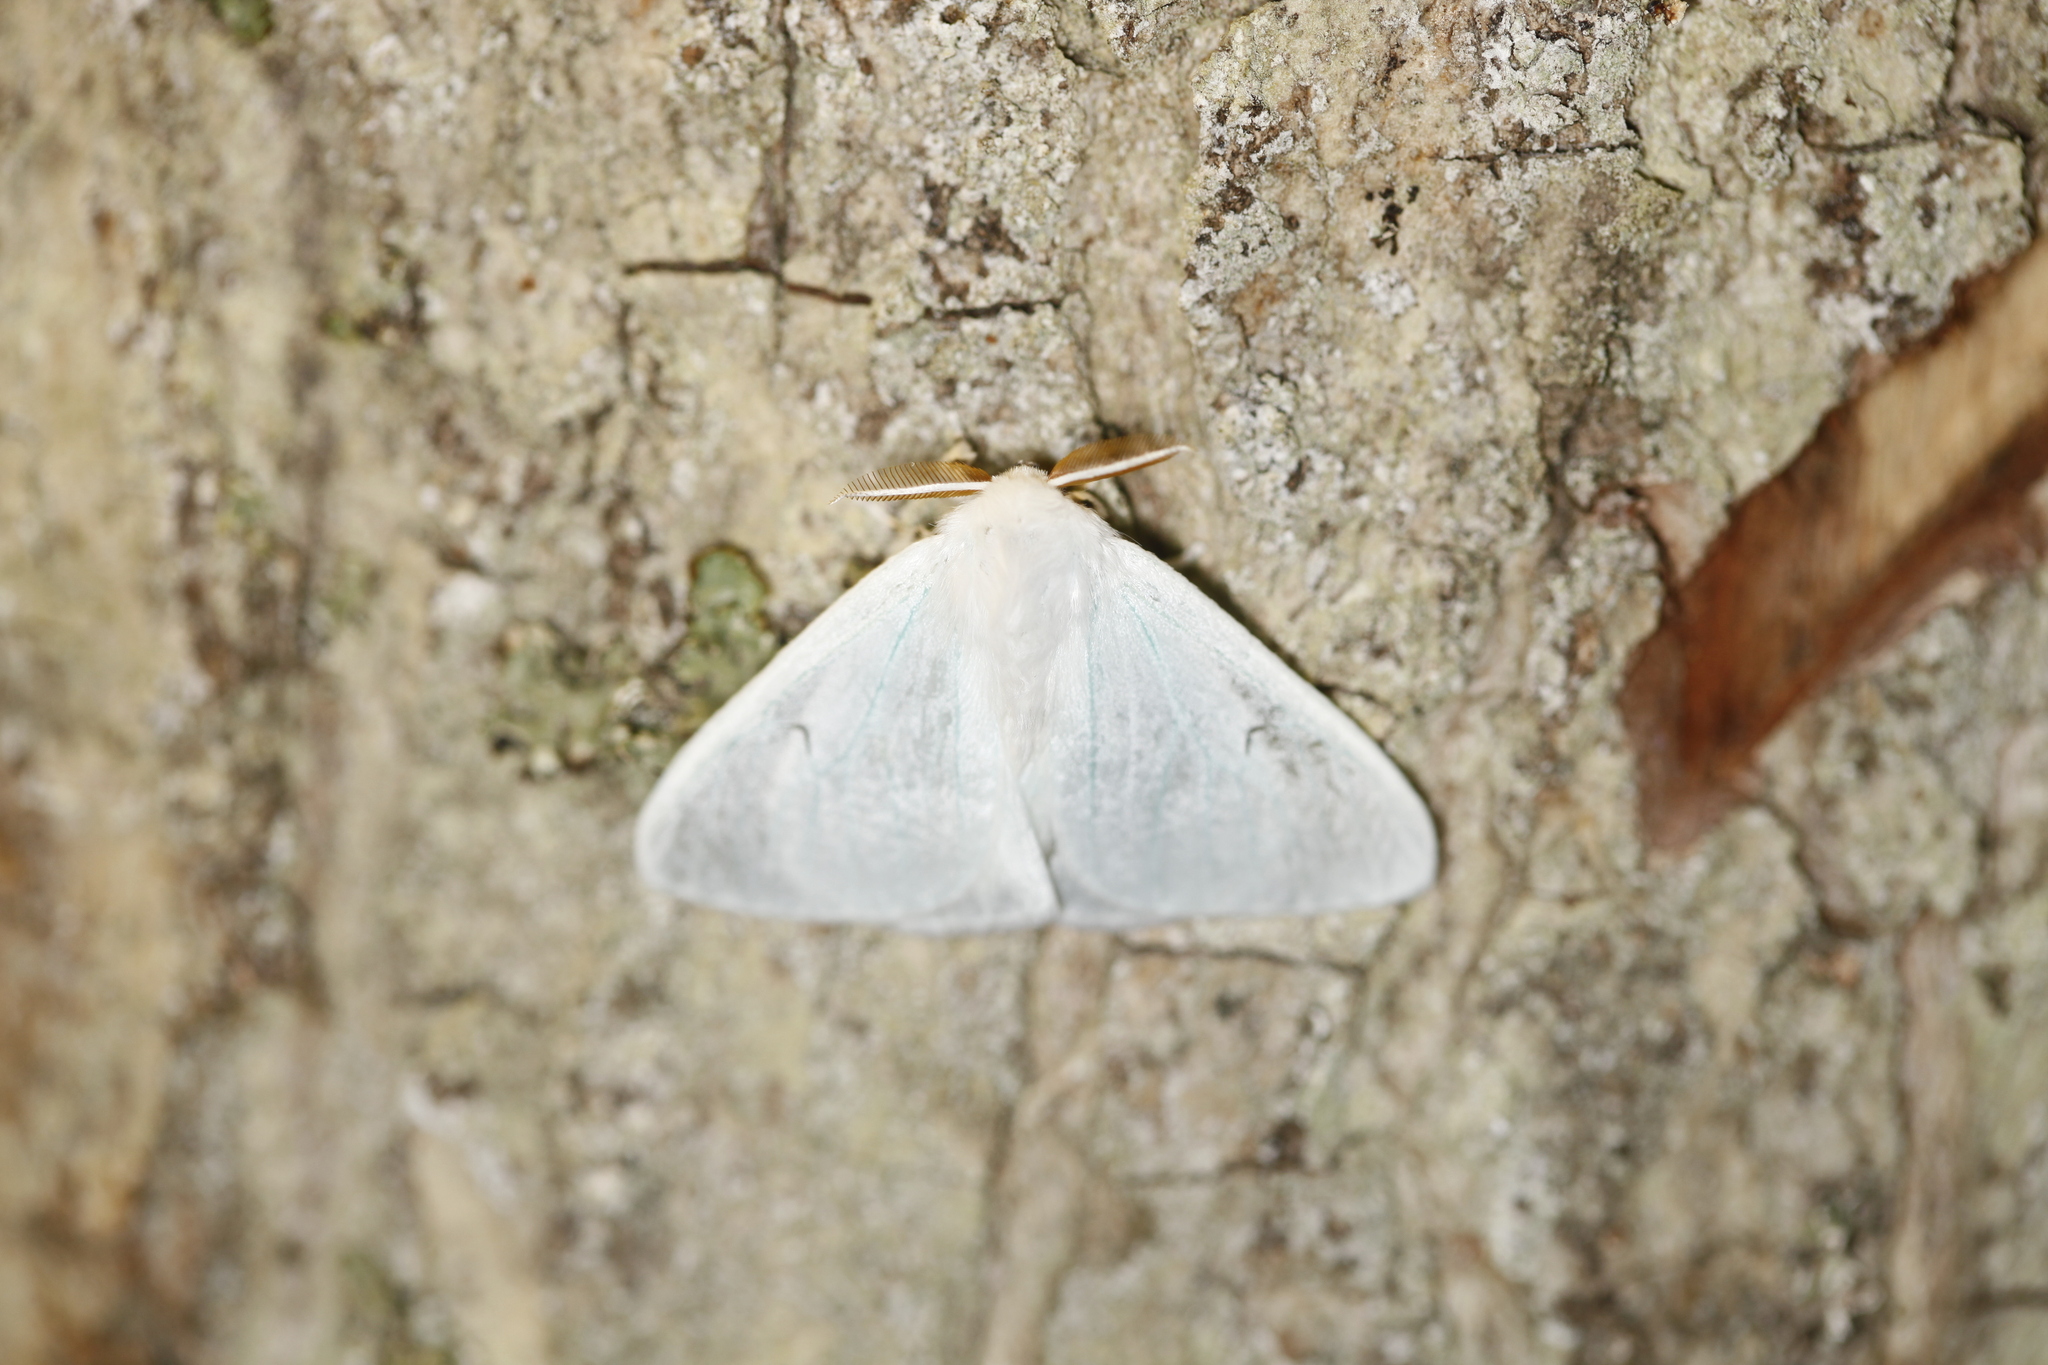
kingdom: Animalia
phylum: Arthropoda
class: Insecta
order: Lepidoptera
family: Erebidae
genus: Arctornis
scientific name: Arctornis l-nigrum
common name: Black v moth
